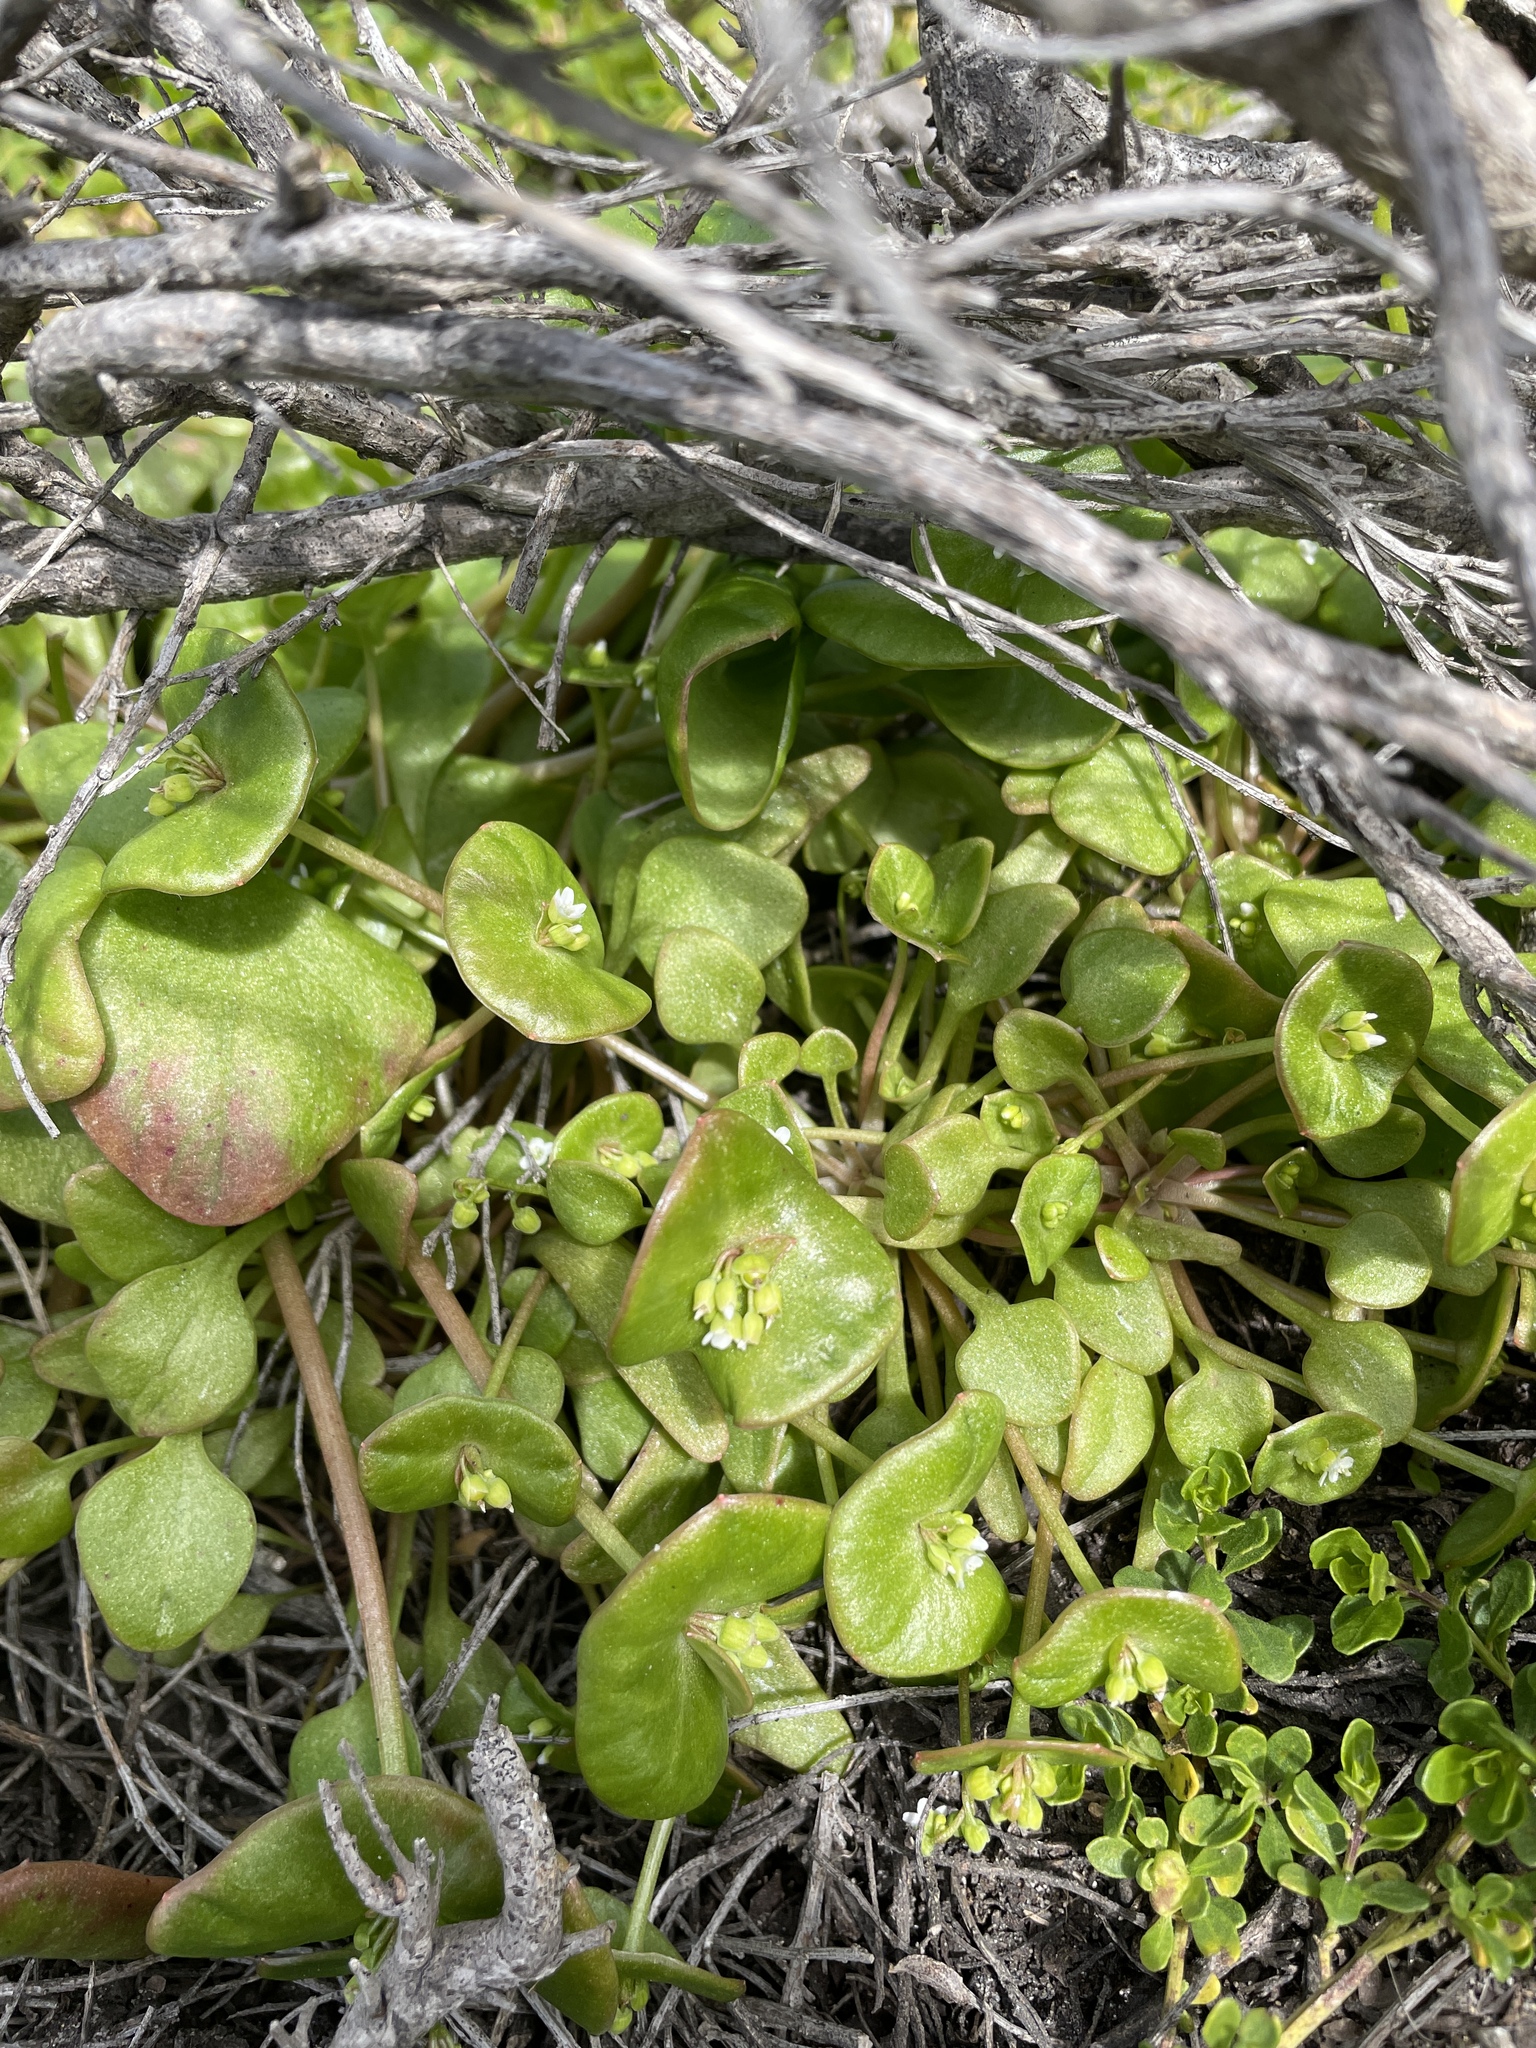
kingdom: Plantae
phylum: Tracheophyta
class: Magnoliopsida
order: Caryophyllales
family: Montiaceae
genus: Claytonia
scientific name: Claytonia perfoliata
